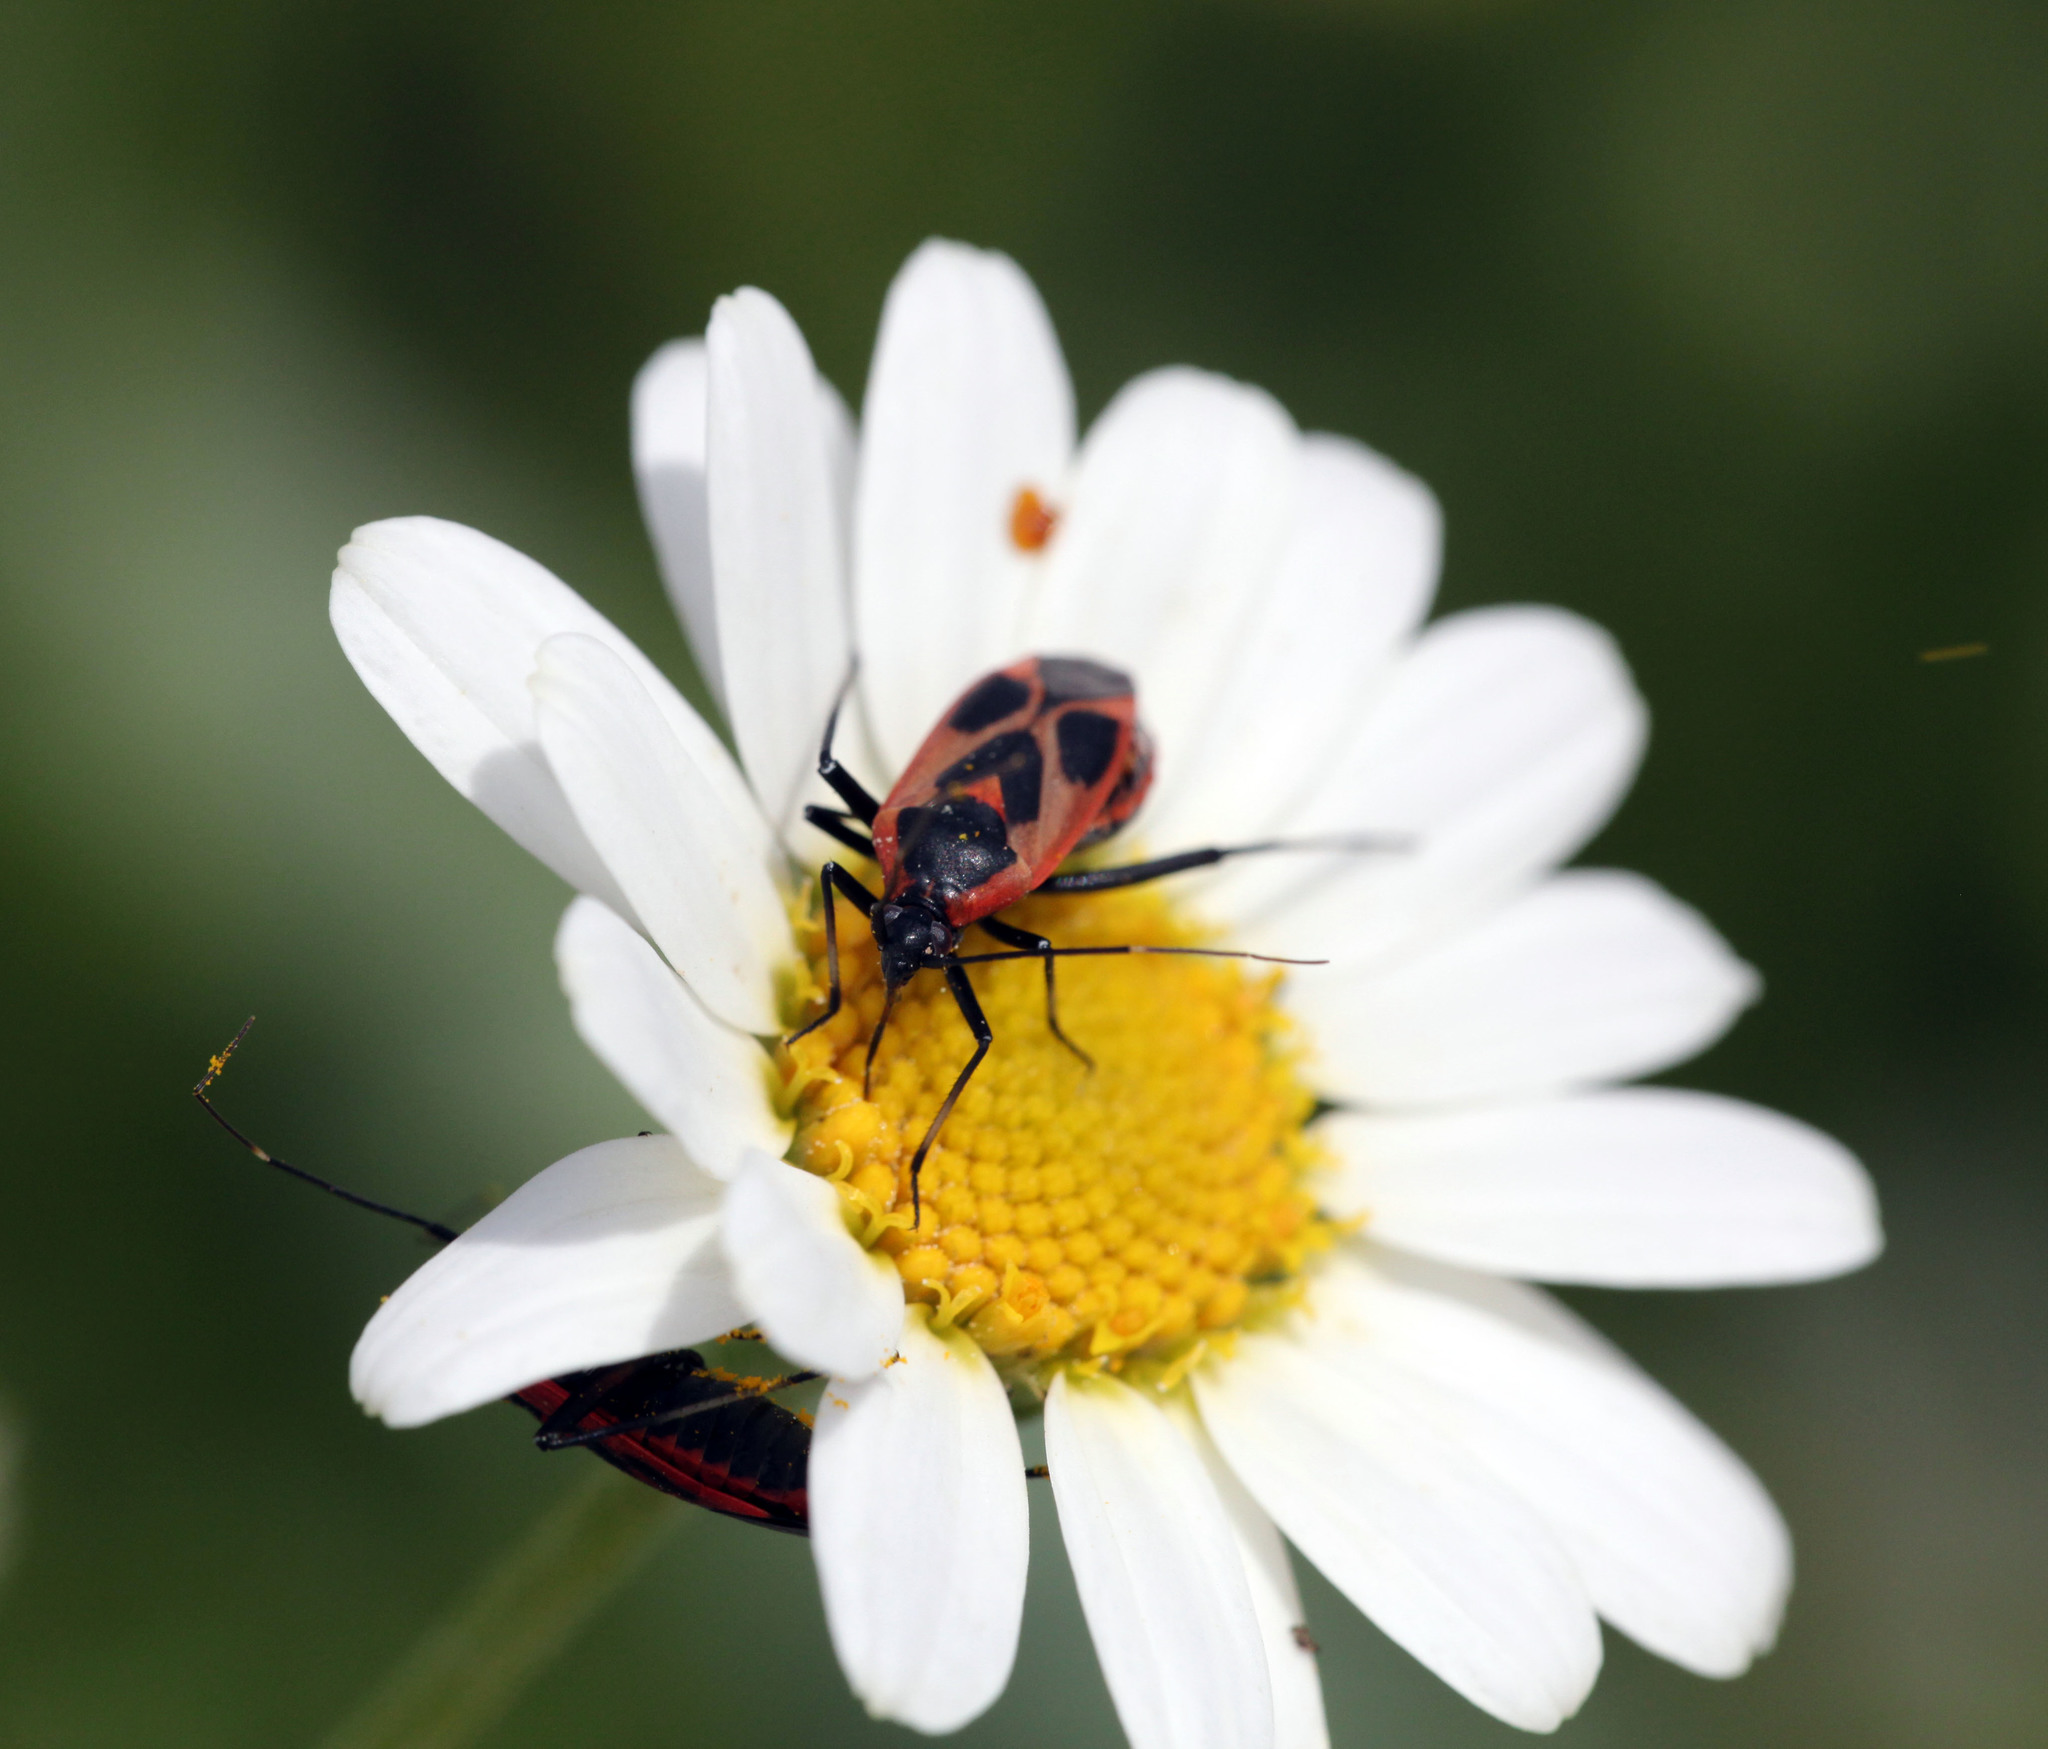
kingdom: Animalia
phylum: Arthropoda
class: Insecta
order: Hemiptera
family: Miridae
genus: Calocoris
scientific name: Calocoris nemoralis
